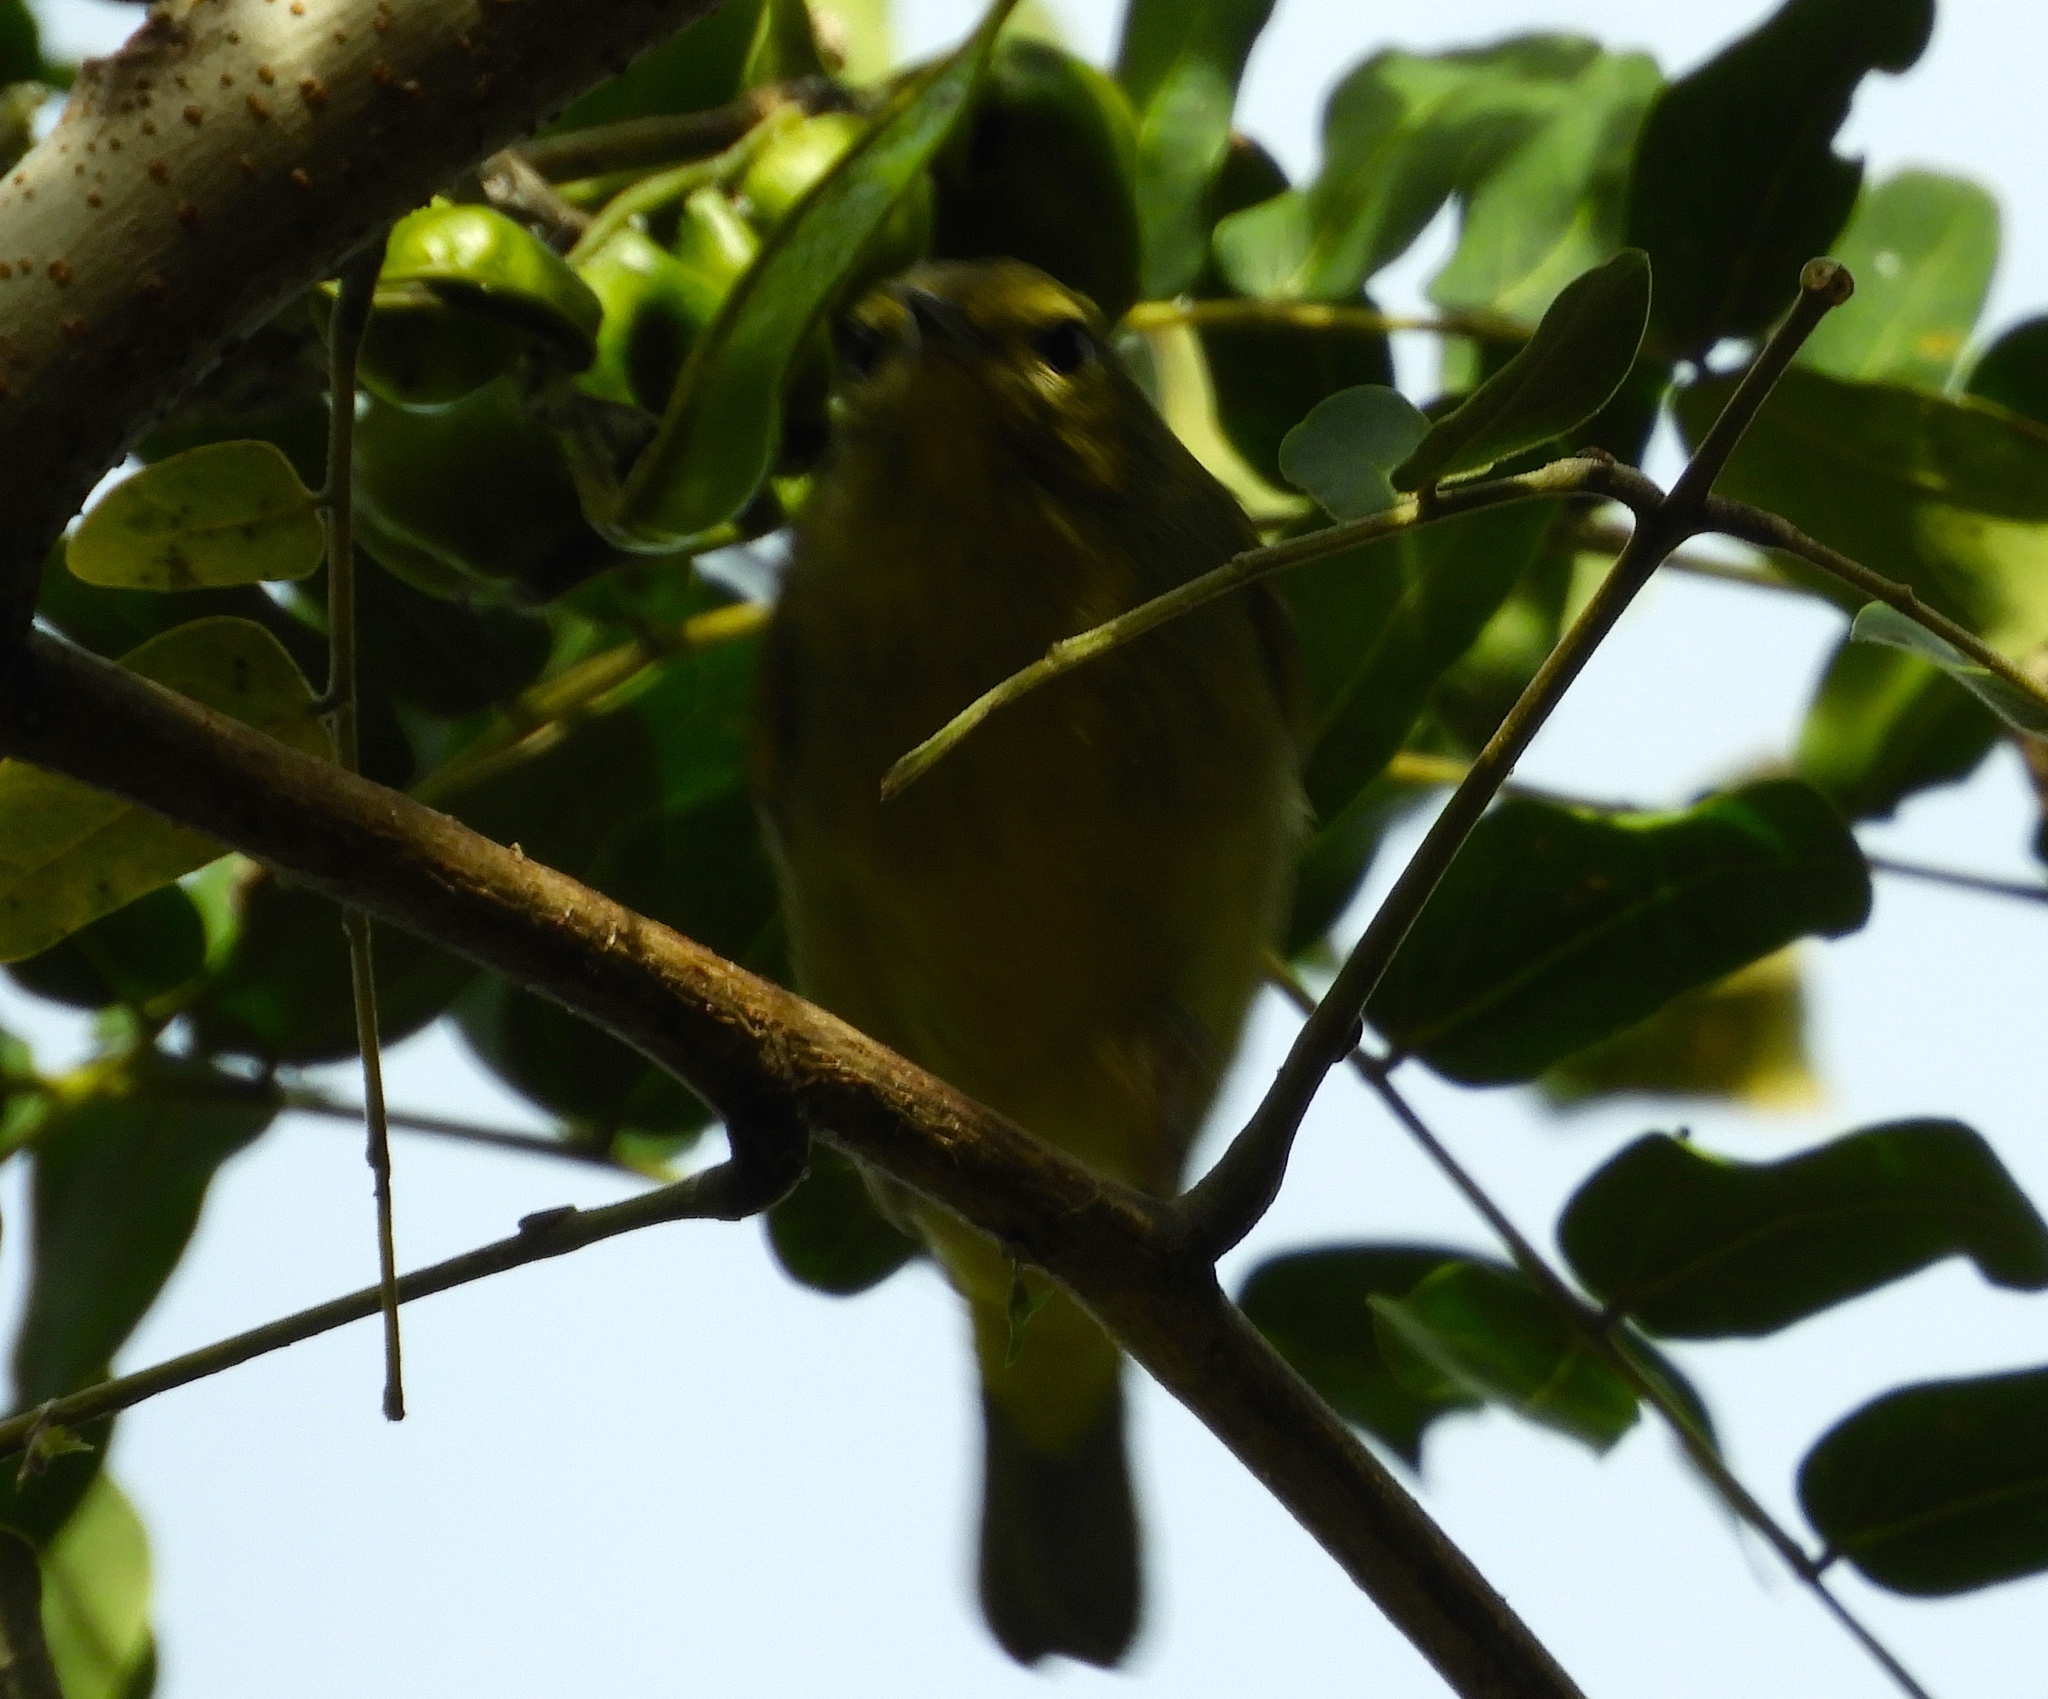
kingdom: Animalia
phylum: Chordata
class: Aves
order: Passeriformes
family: Parulidae
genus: Leiothlypis
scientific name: Leiothlypis celata
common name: Orange-crowned warbler
